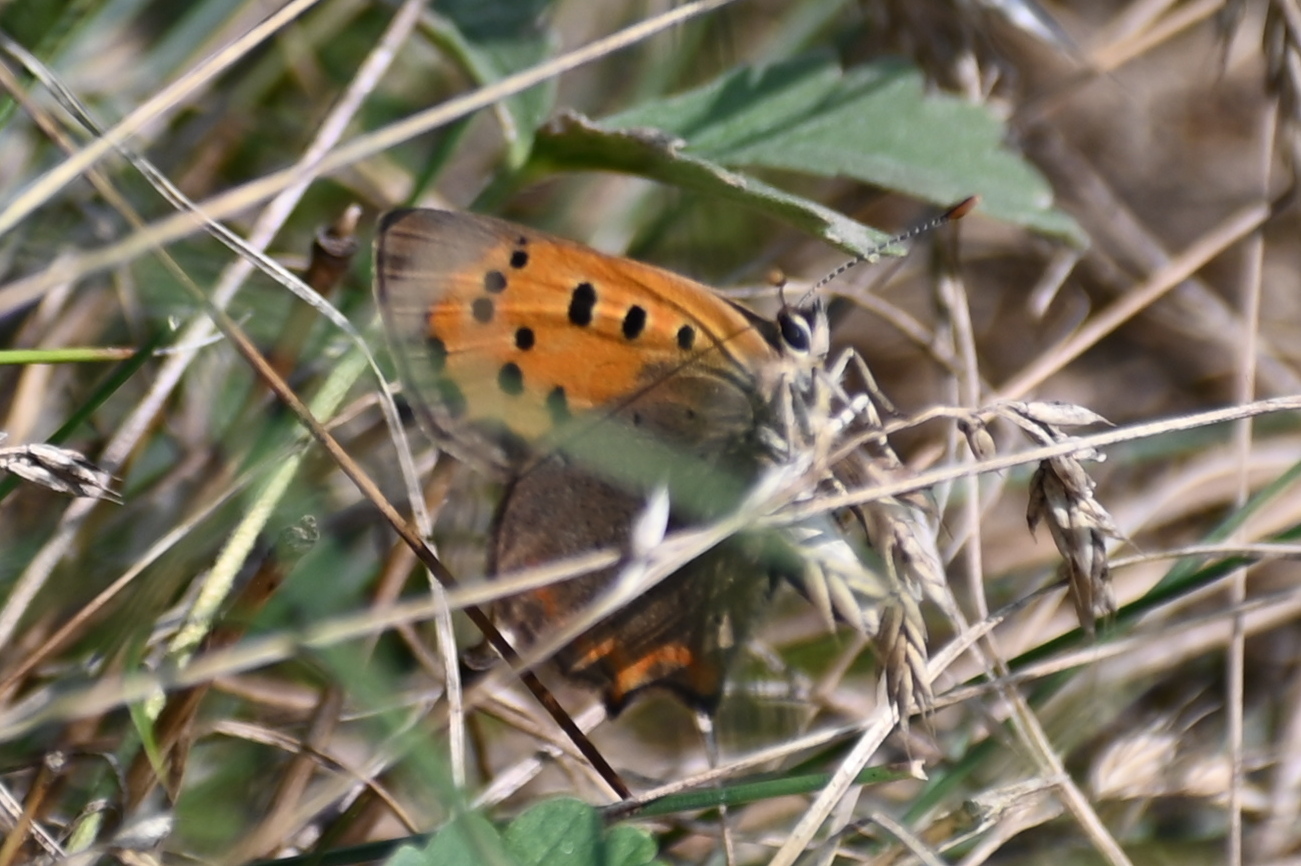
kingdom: Animalia
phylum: Arthropoda
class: Insecta
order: Lepidoptera
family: Lycaenidae
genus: Lycaena
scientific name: Lycaena phlaeas
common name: Small copper
